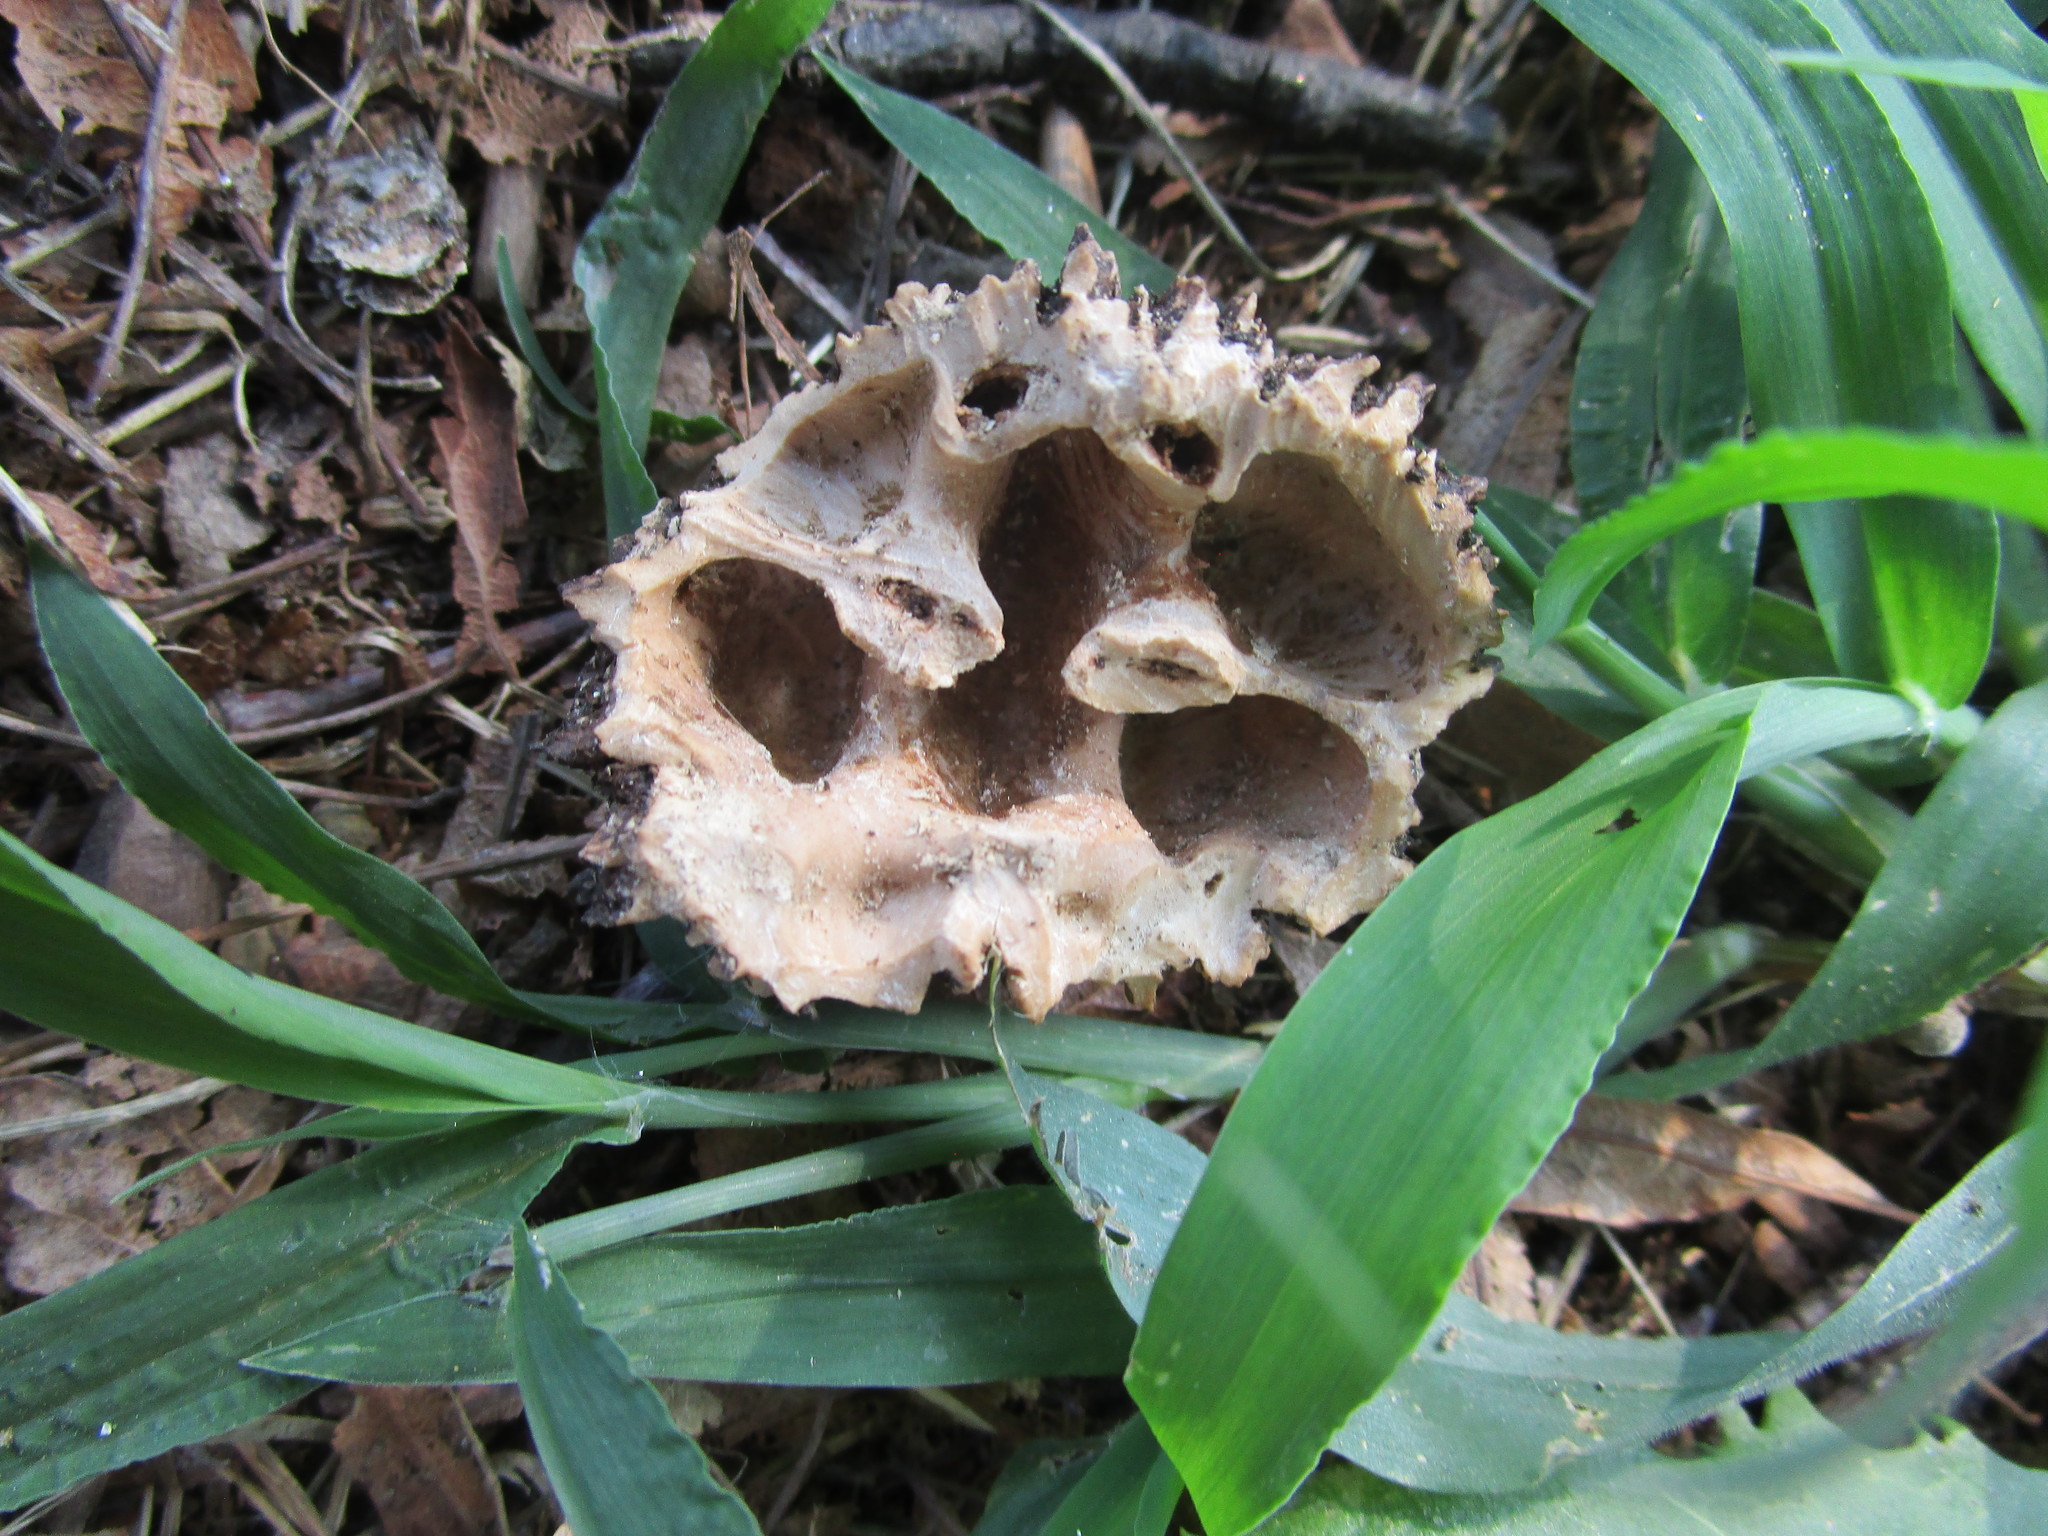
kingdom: Animalia
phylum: Chordata
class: Mammalia
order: Rodentia
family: Sciuridae
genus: Sciurus
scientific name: Sciurus carolinensis
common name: Eastern gray squirrel
